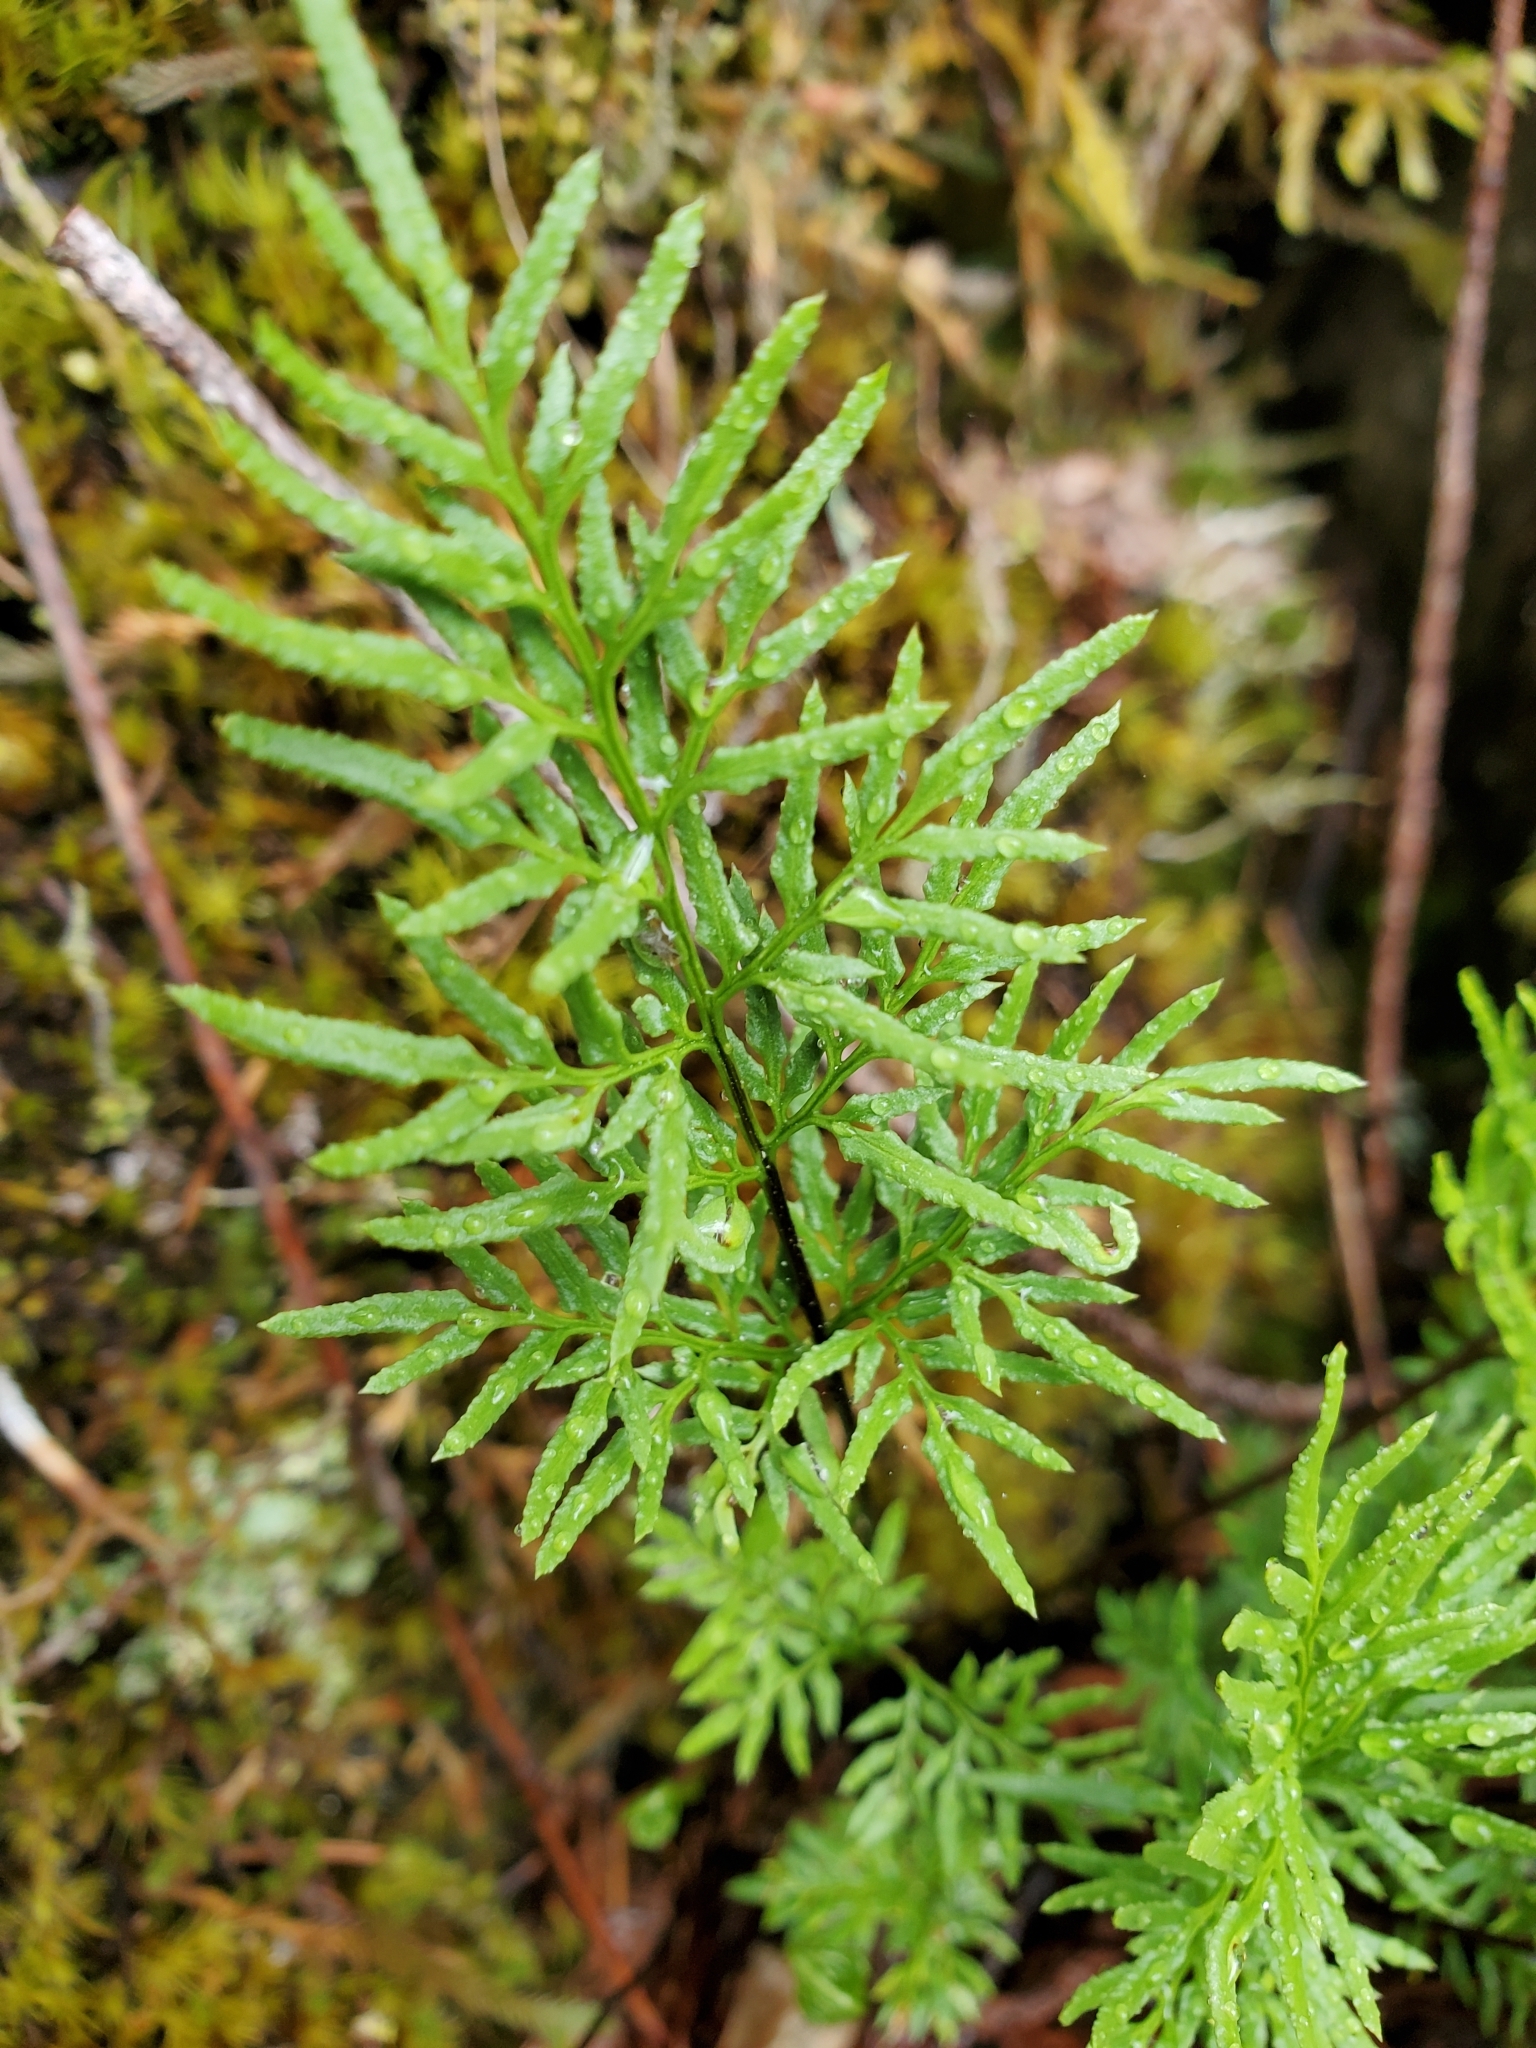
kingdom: Plantae
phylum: Tracheophyta
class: Polypodiopsida
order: Polypodiales
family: Pteridaceae
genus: Aspidotis
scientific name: Aspidotis densa
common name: Indian's dream
